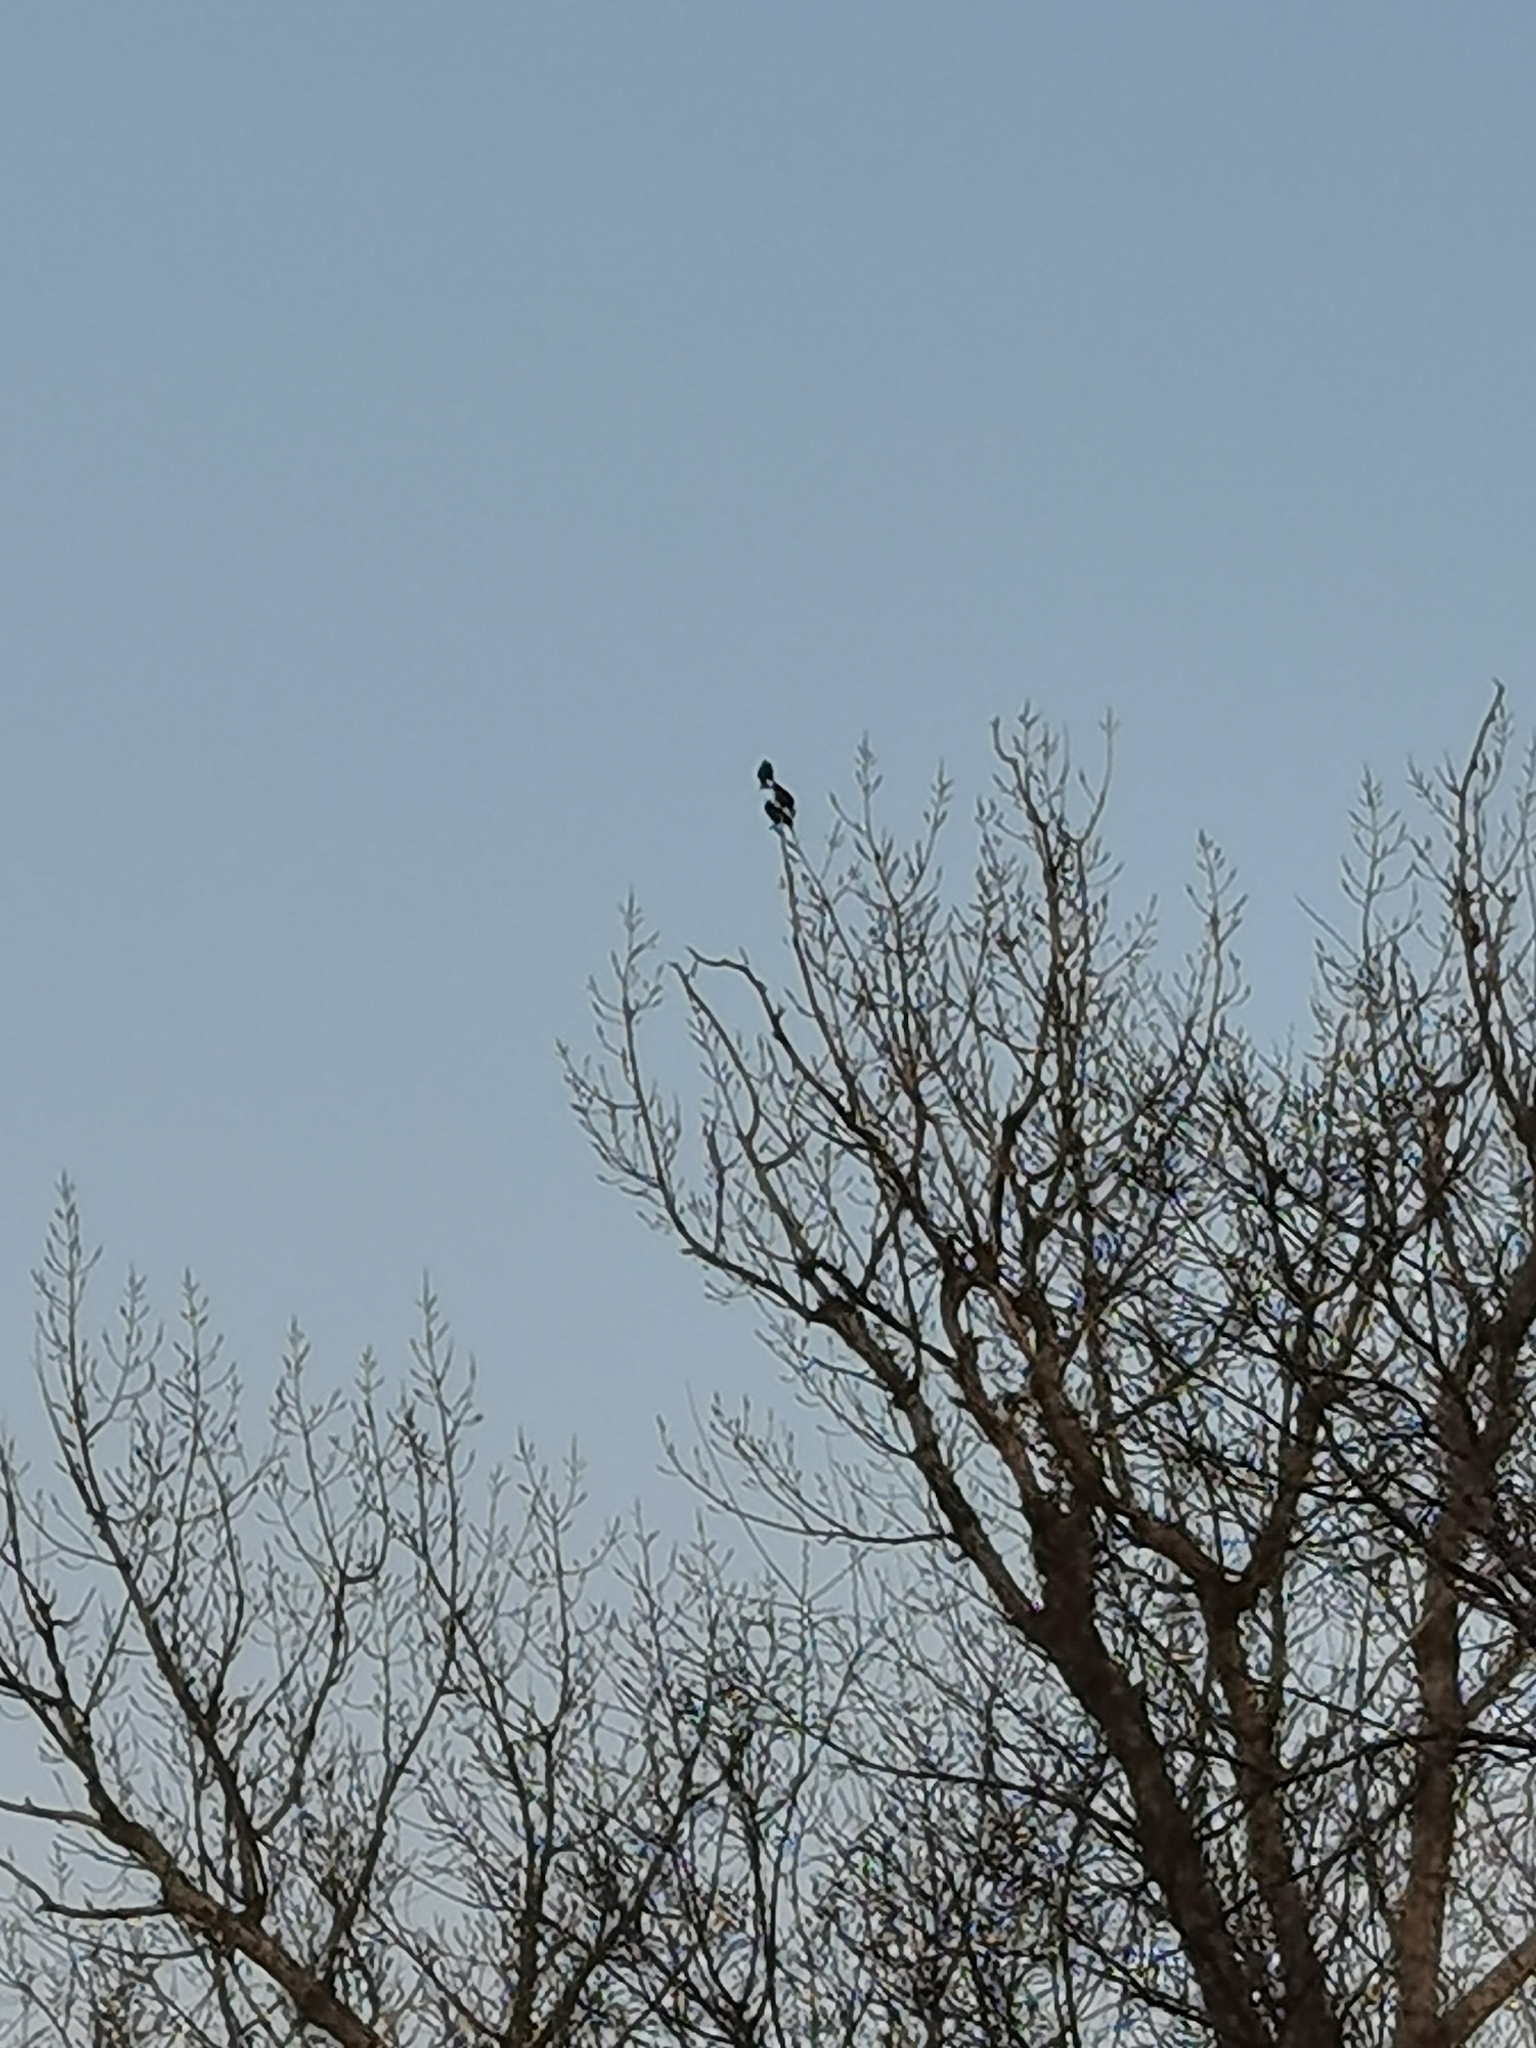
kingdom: Animalia
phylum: Chordata
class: Aves
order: Passeriformes
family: Sturnidae
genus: Sturnus
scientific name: Sturnus vulgaris
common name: Common starling
